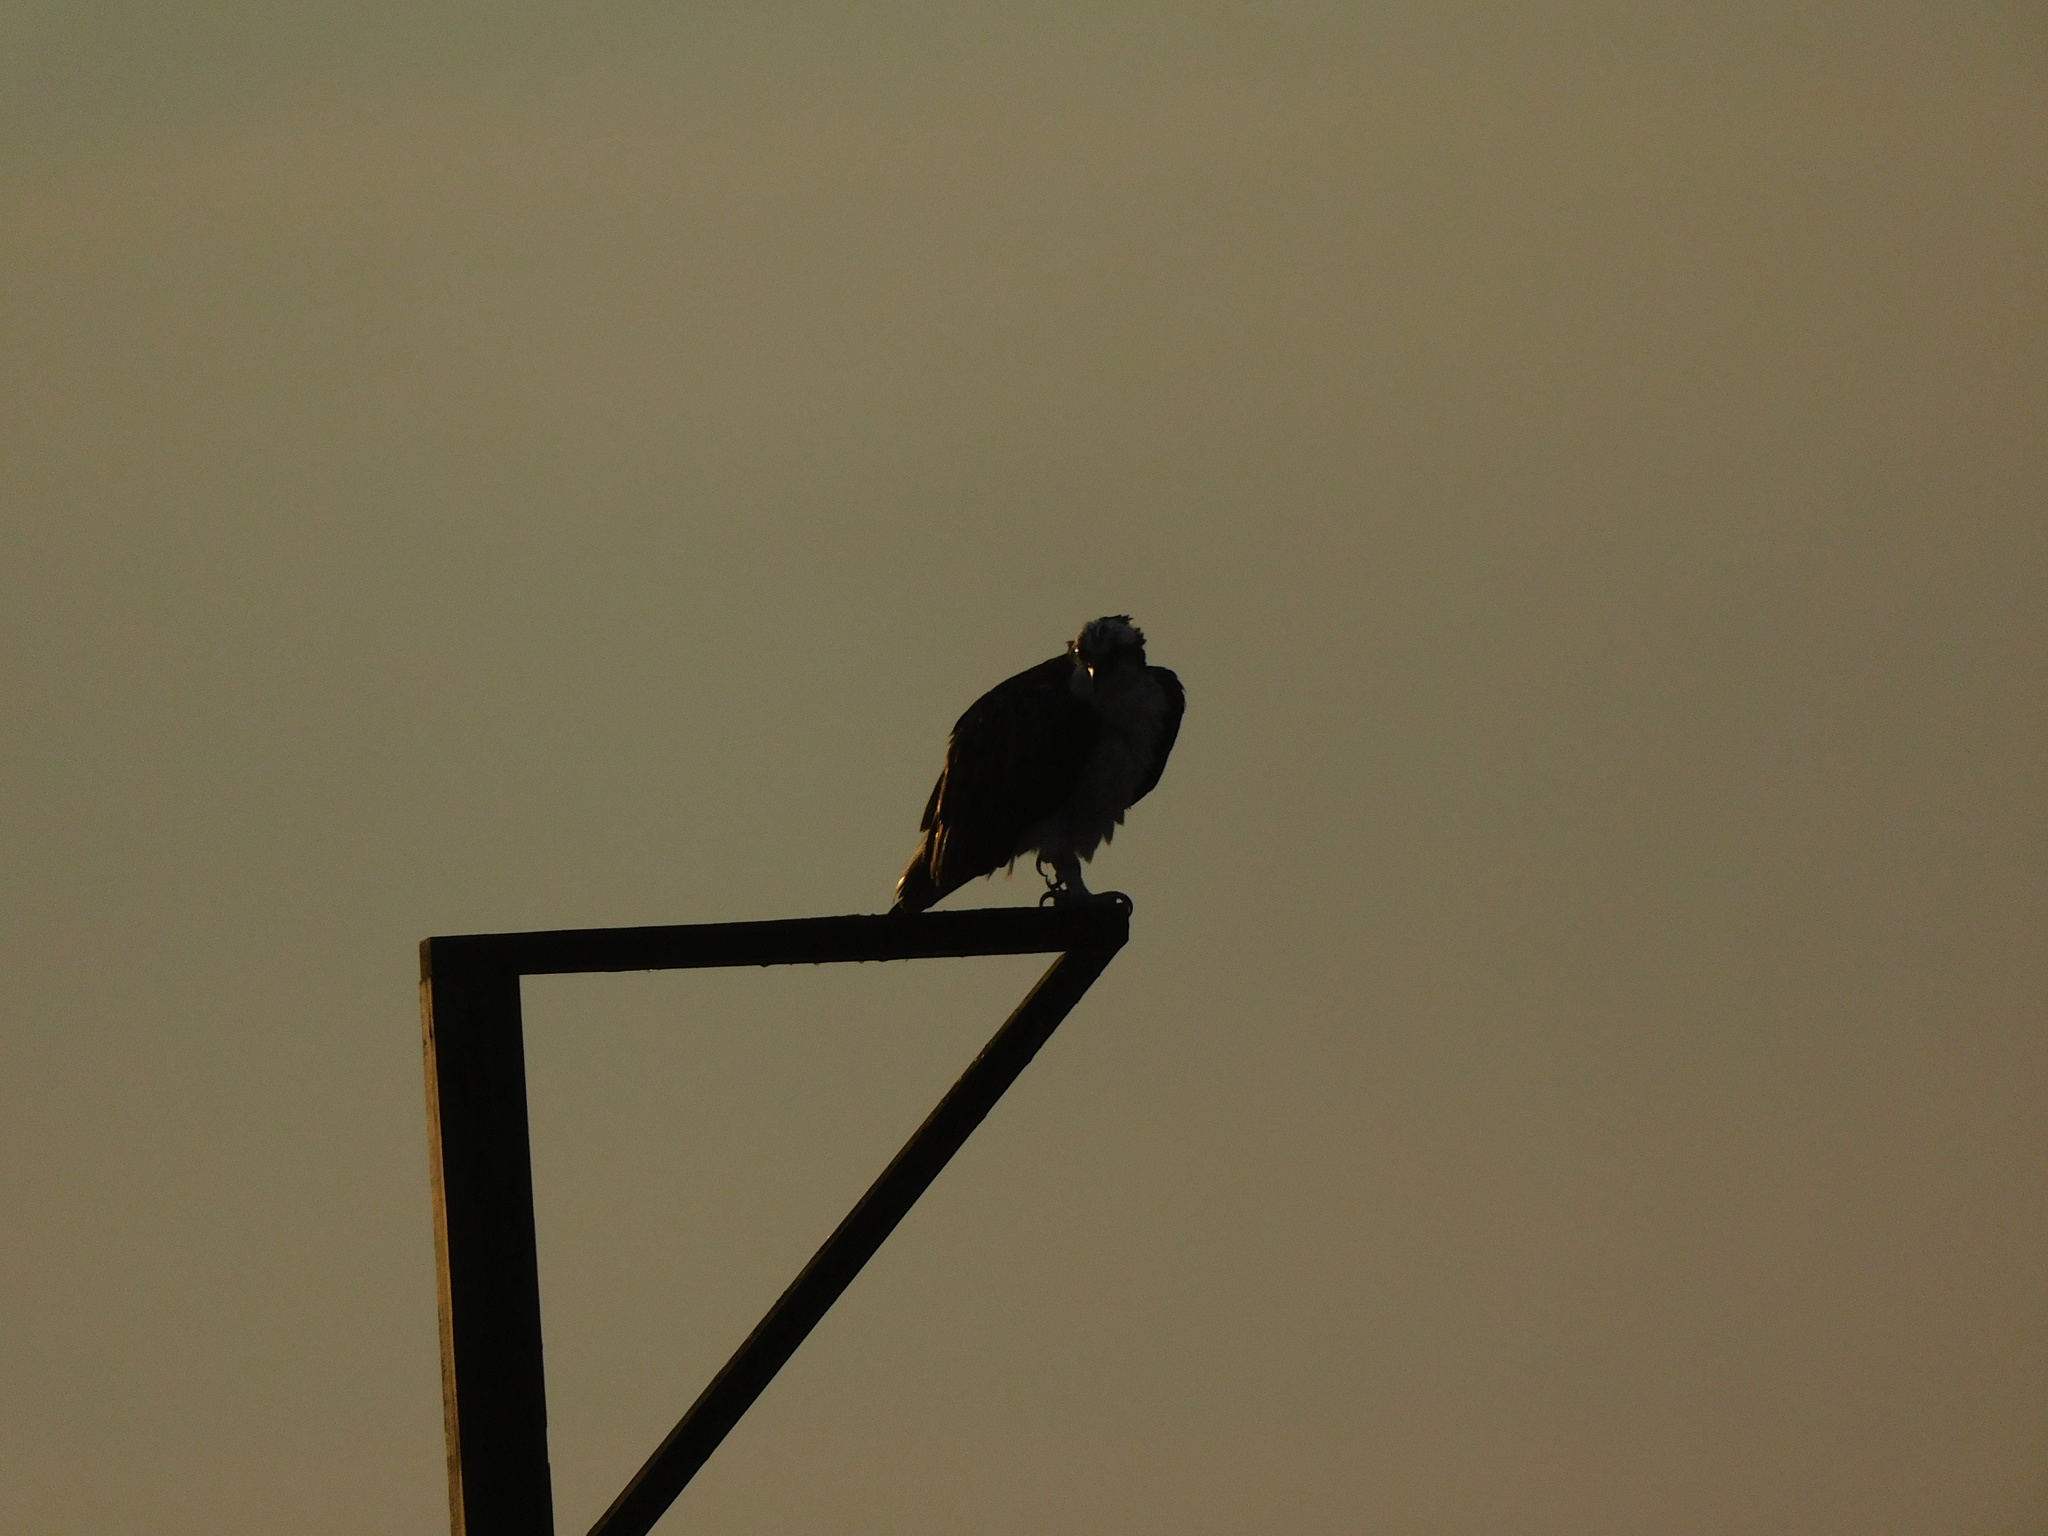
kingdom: Animalia
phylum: Chordata
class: Aves
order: Accipitriformes
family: Pandionidae
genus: Pandion
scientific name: Pandion haliaetus
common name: Osprey
